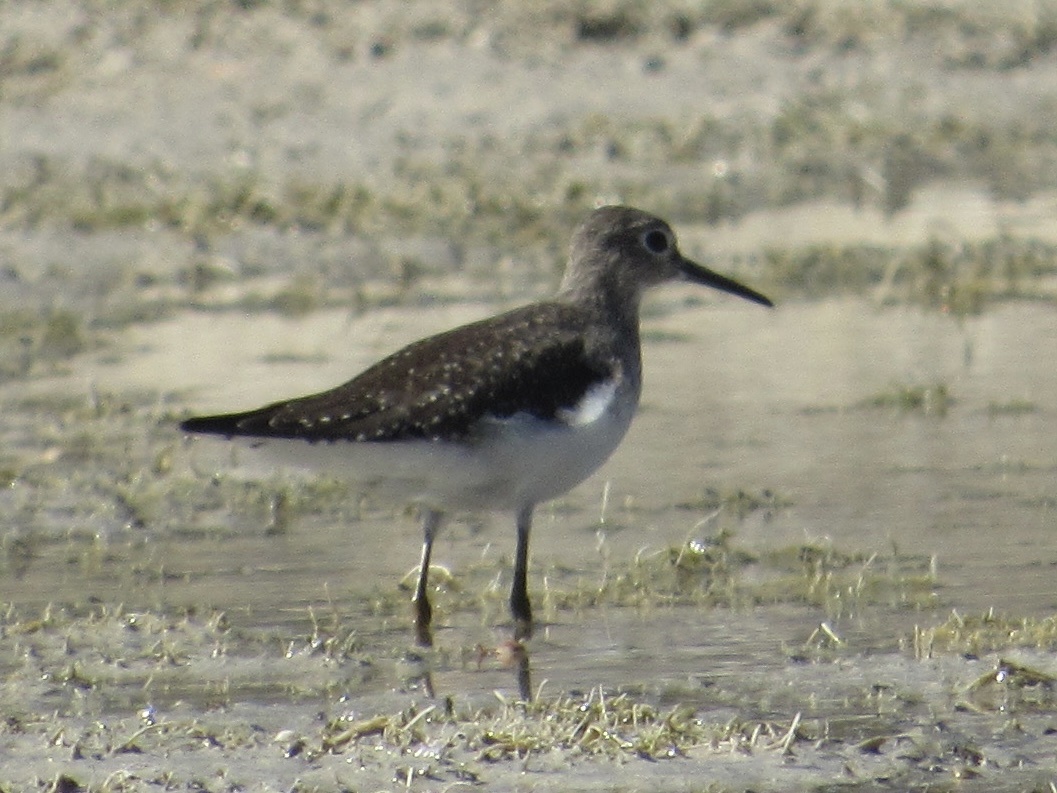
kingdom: Animalia
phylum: Chordata
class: Aves
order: Charadriiformes
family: Scolopacidae
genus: Tringa
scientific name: Tringa solitaria
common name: Solitary sandpiper
